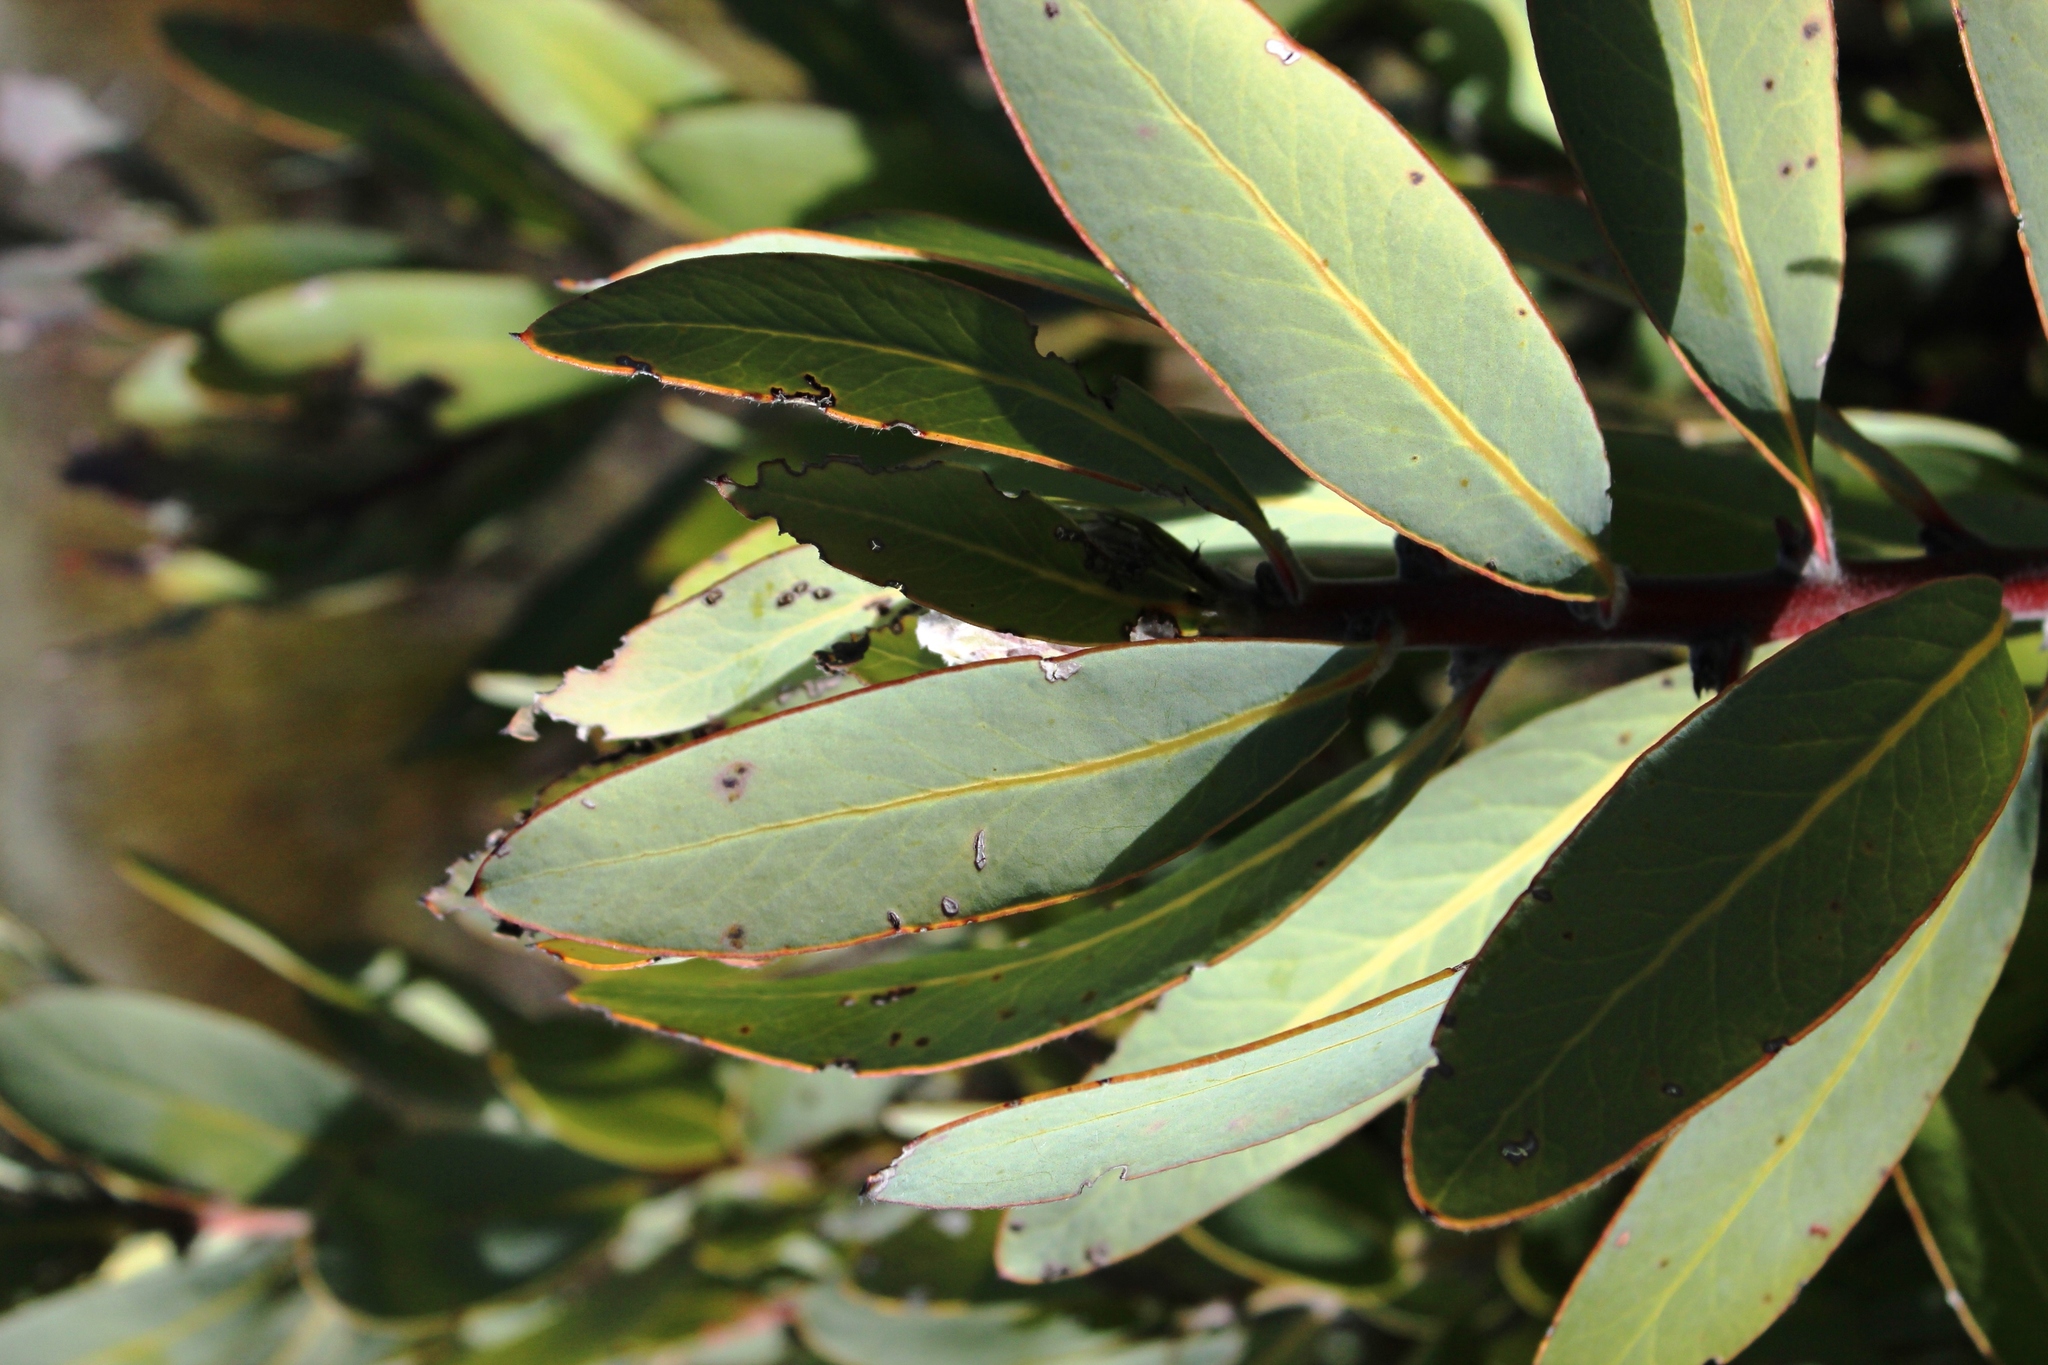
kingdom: Plantae
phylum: Tracheophyta
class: Magnoliopsida
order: Proteales
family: Proteaceae
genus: Protea
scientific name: Protea laurifolia
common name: Grey-leaf sugarbsh
